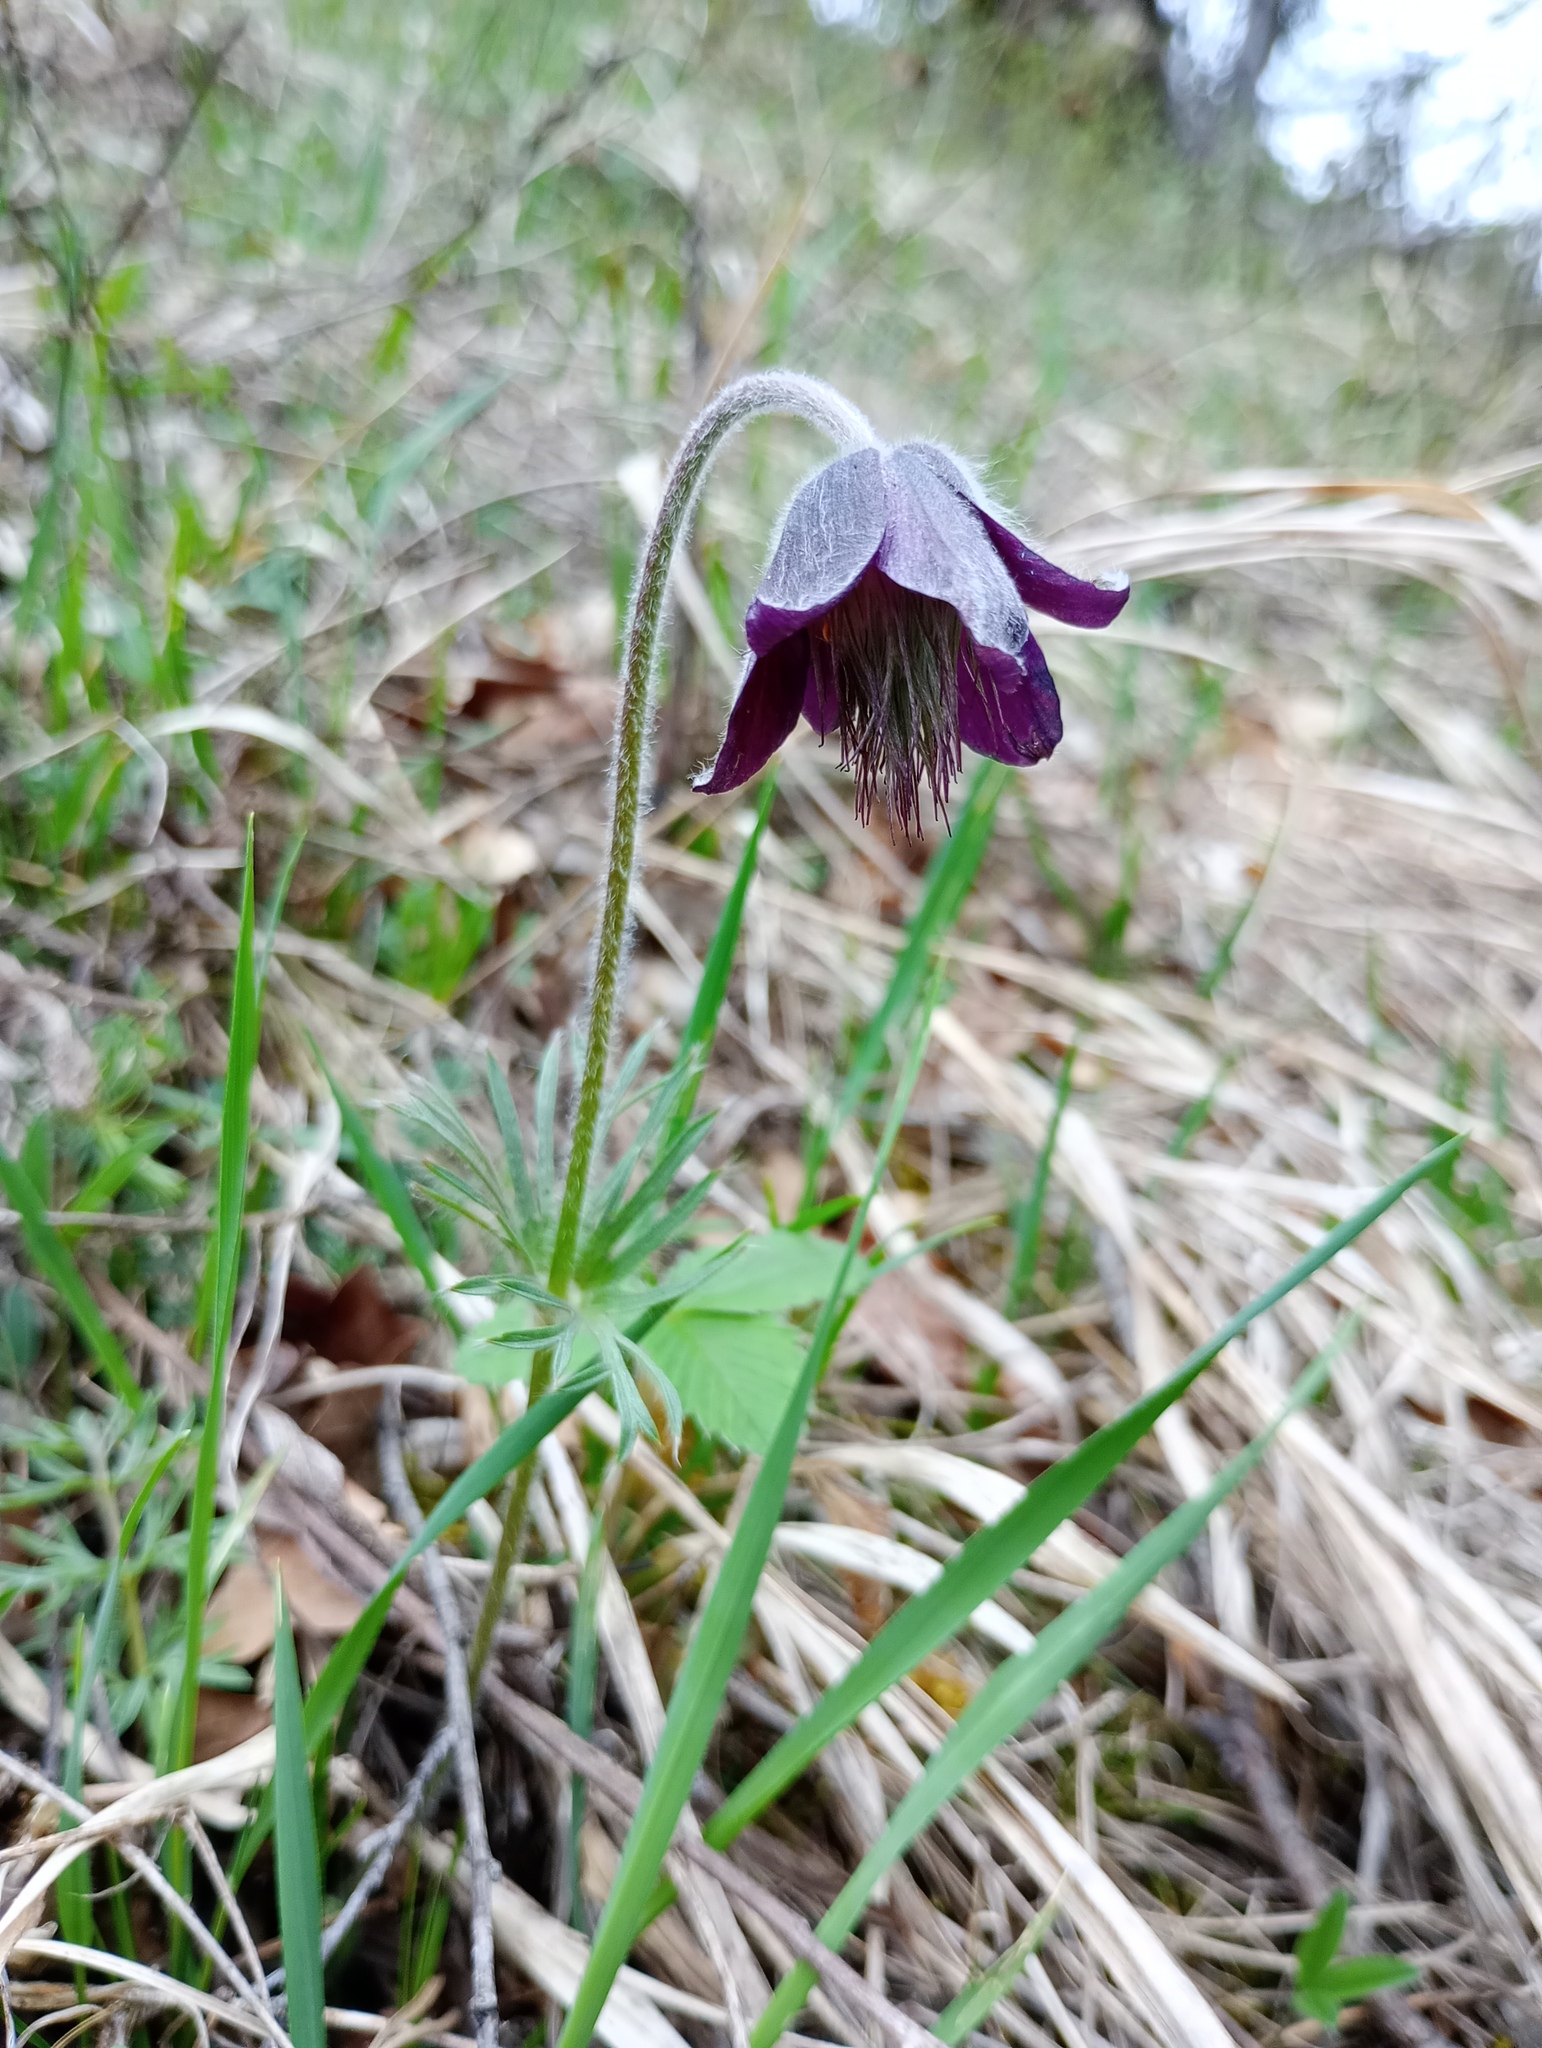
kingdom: Plantae
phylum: Tracheophyta
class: Magnoliopsida
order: Ranunculales
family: Ranunculaceae
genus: Pulsatilla
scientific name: Pulsatilla pratensis
